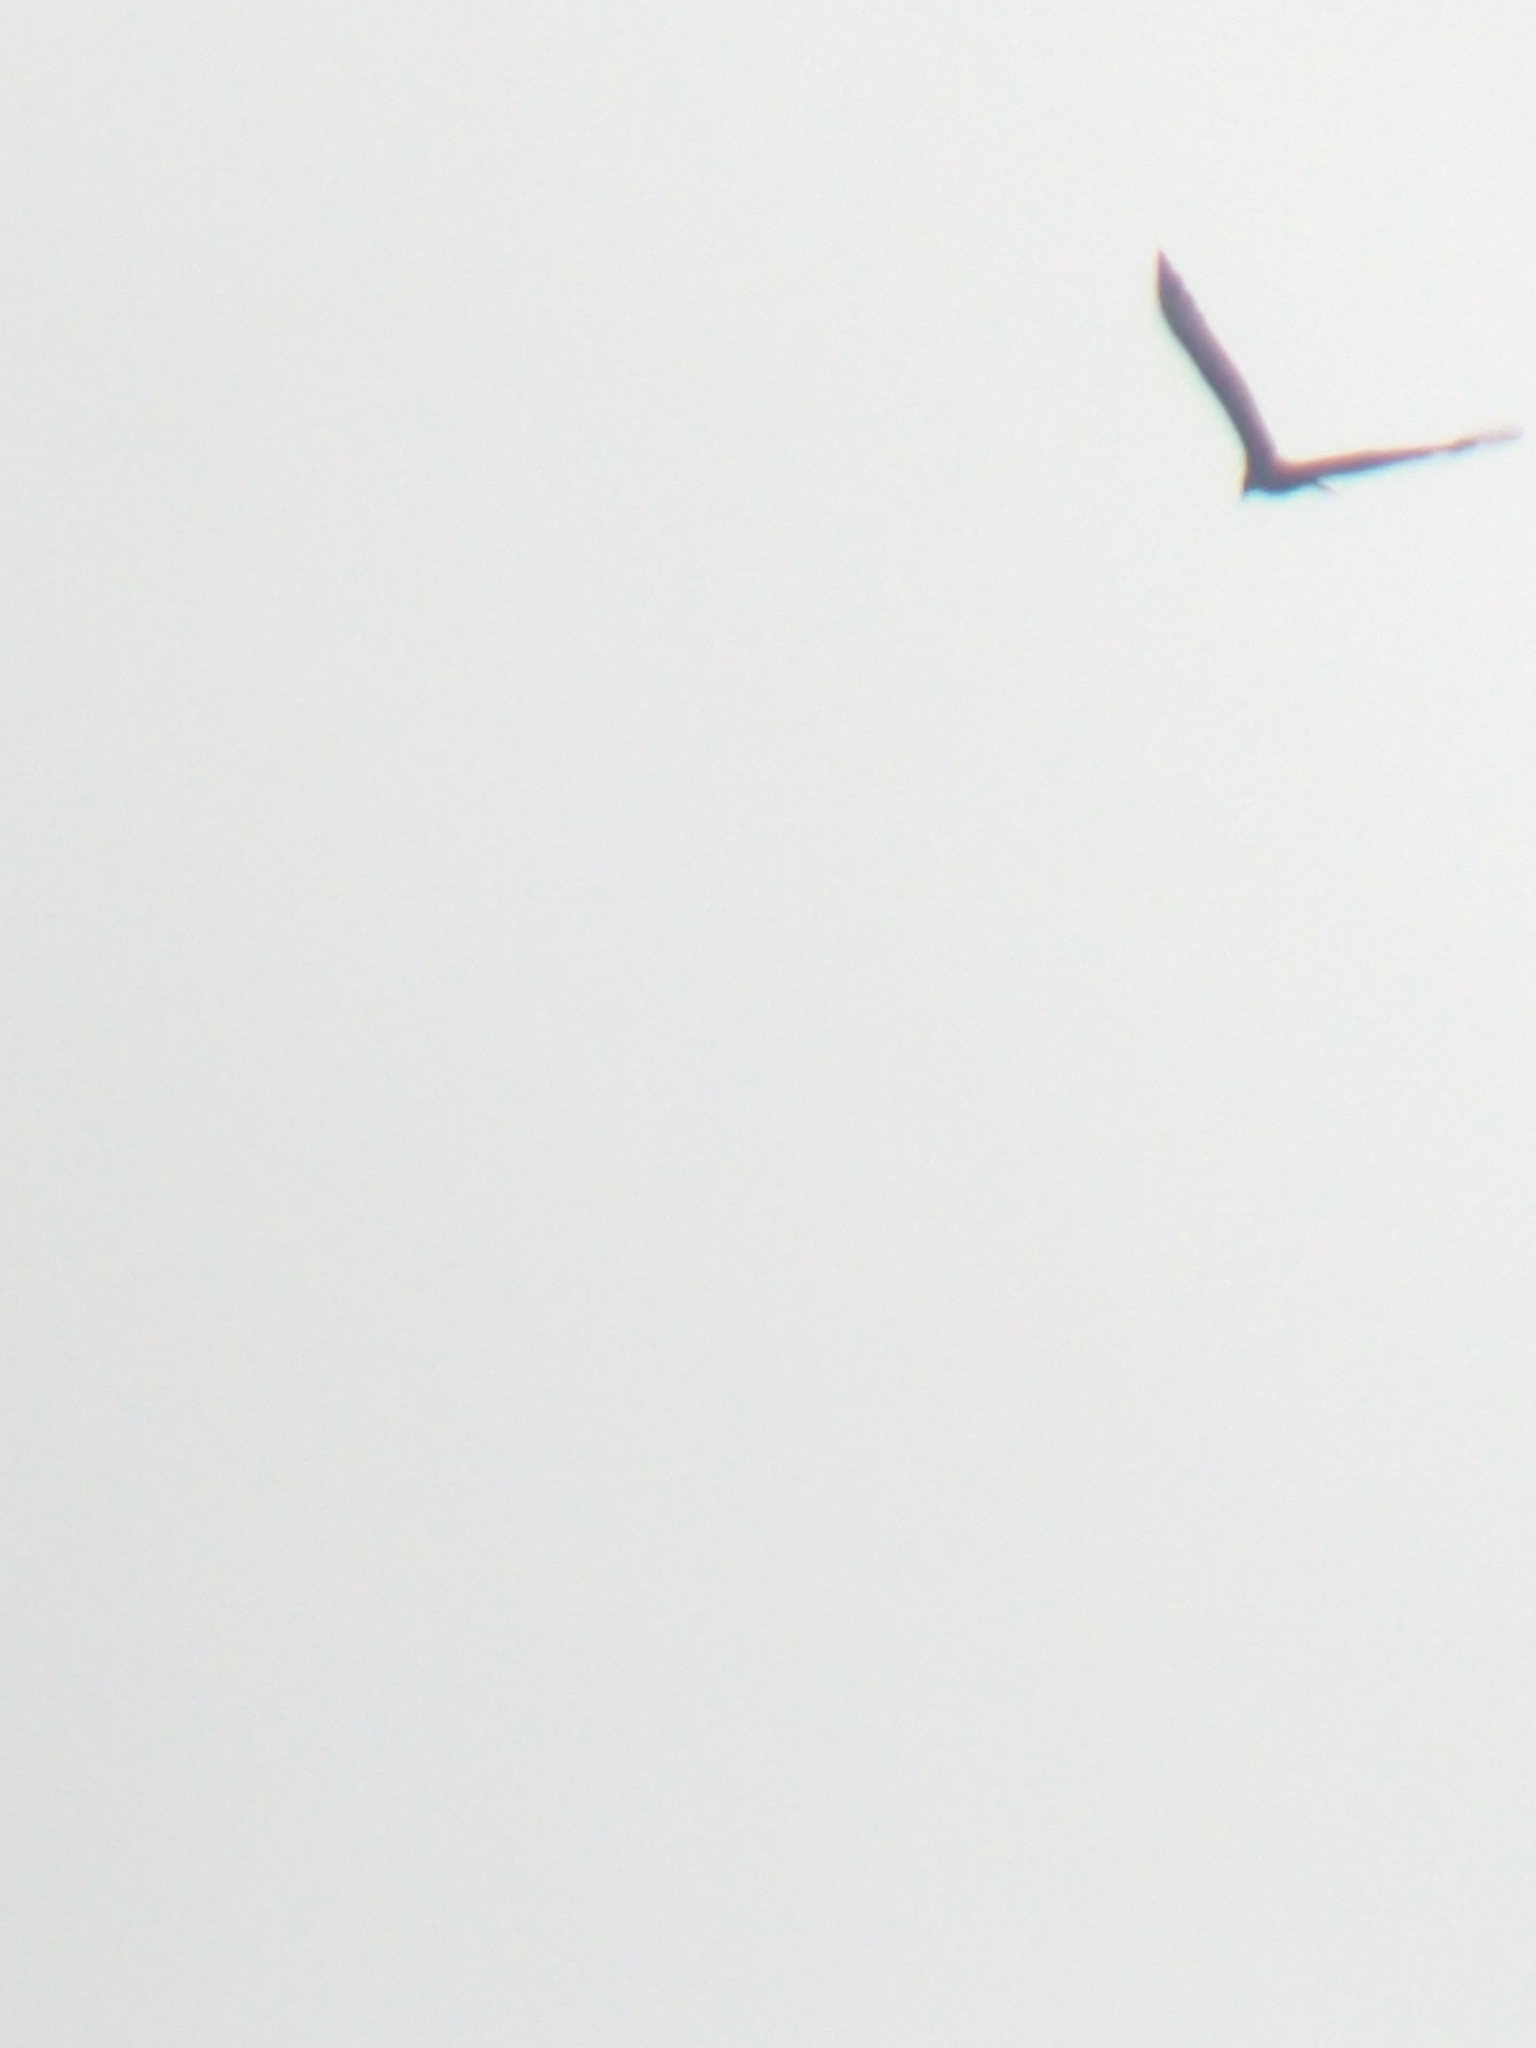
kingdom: Animalia
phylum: Chordata
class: Aves
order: Accipitriformes
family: Cathartidae
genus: Cathartes
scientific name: Cathartes aura
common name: Turkey vulture
